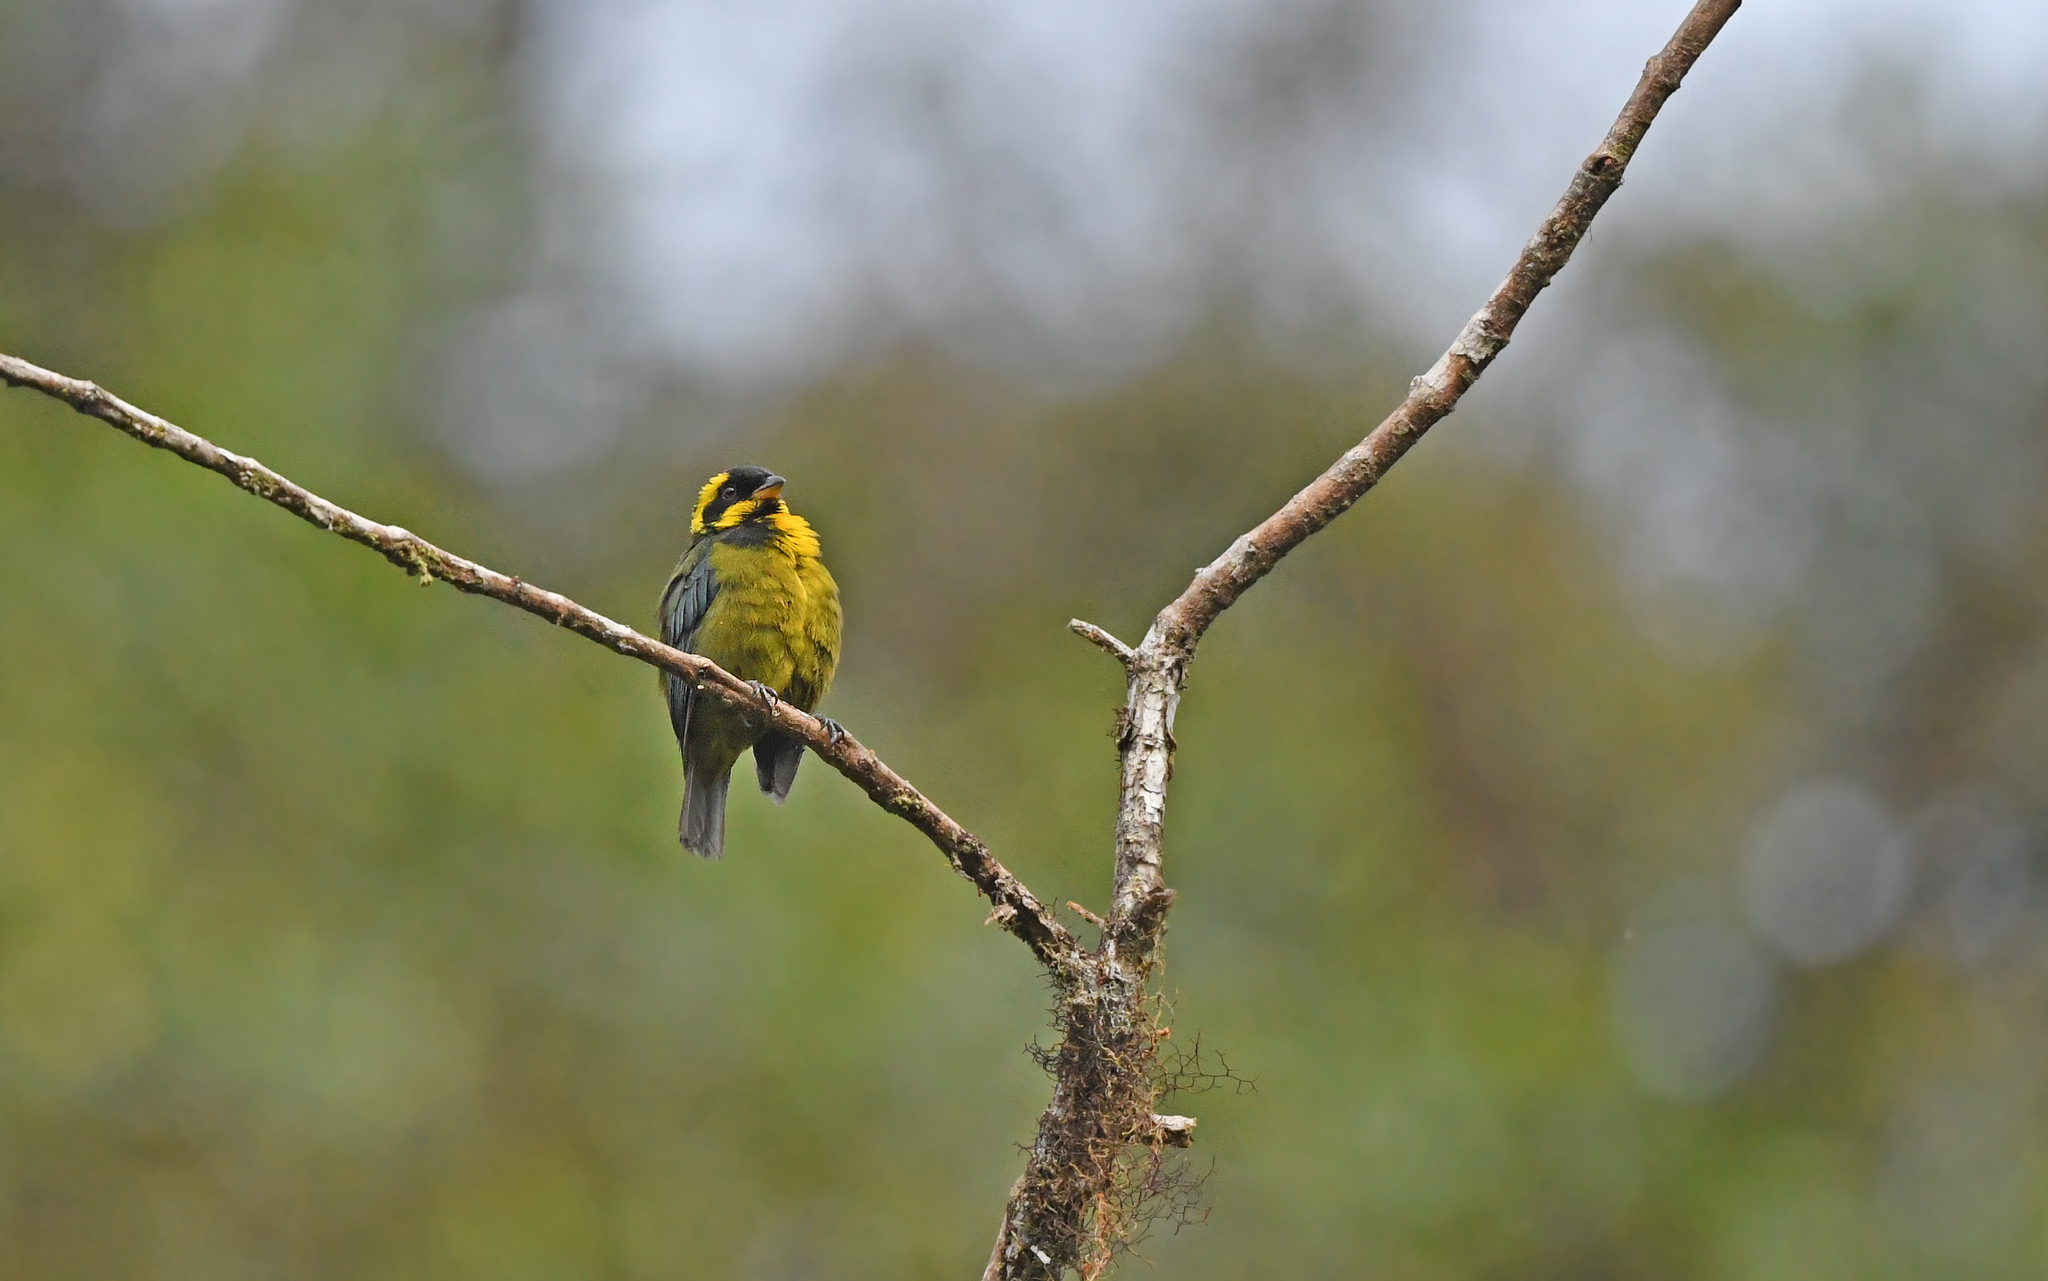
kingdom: Animalia
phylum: Chordata
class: Aves
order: Passeriformes
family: Thraupidae
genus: Bangsia
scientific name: Bangsia aureocincta
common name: Gold-ringed tanager
